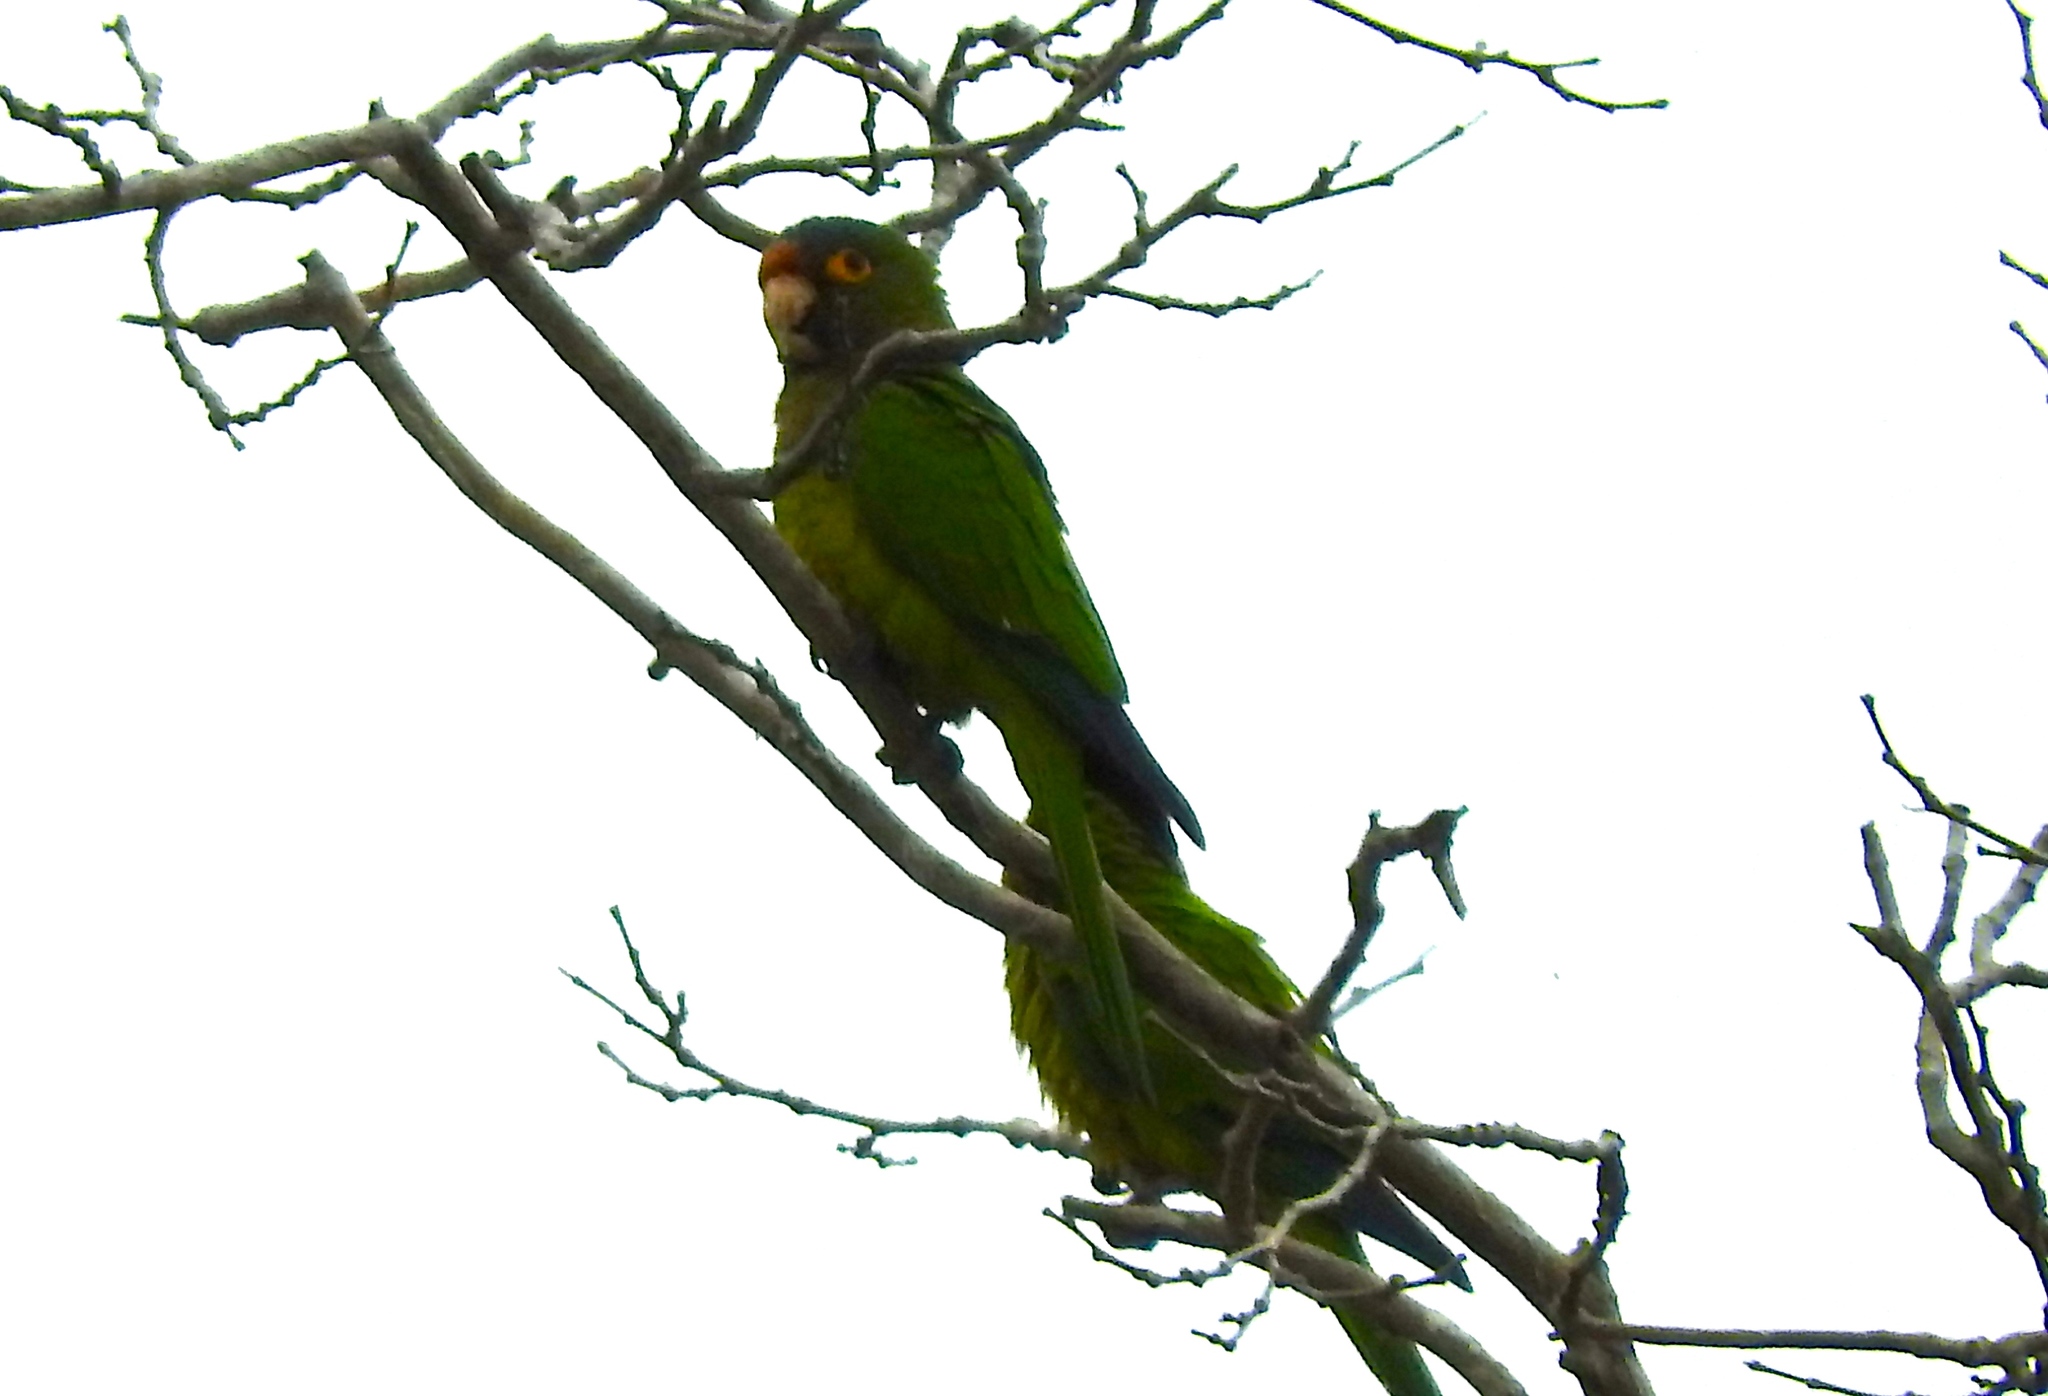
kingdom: Animalia
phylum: Chordata
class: Aves
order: Psittaciformes
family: Psittacidae
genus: Aratinga
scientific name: Aratinga canicularis
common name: Orange-fronted parakeet
